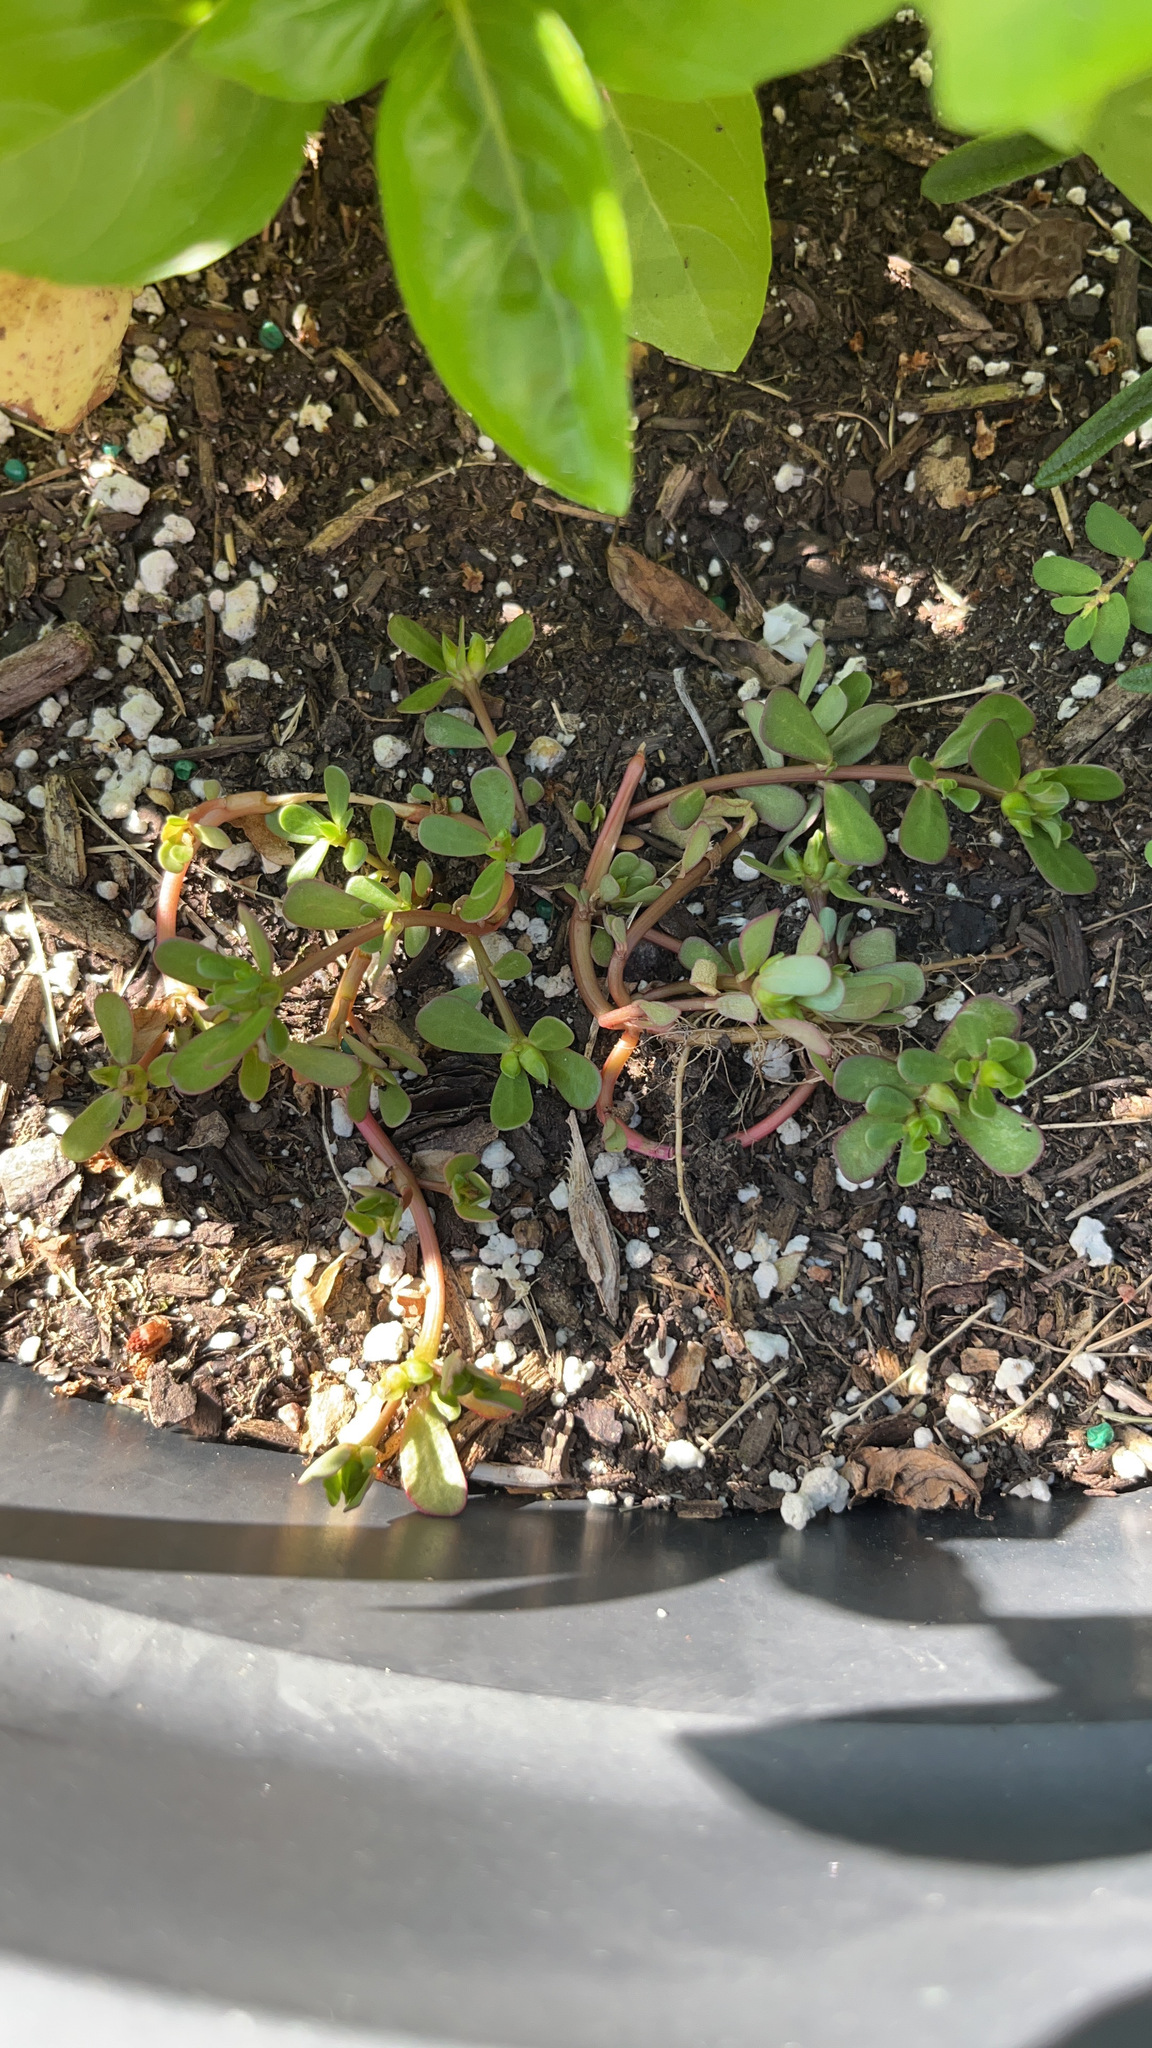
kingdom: Plantae
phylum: Tracheophyta
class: Magnoliopsida
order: Caryophyllales
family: Portulacaceae
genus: Portulaca
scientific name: Portulaca oleracea
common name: Common purslane
